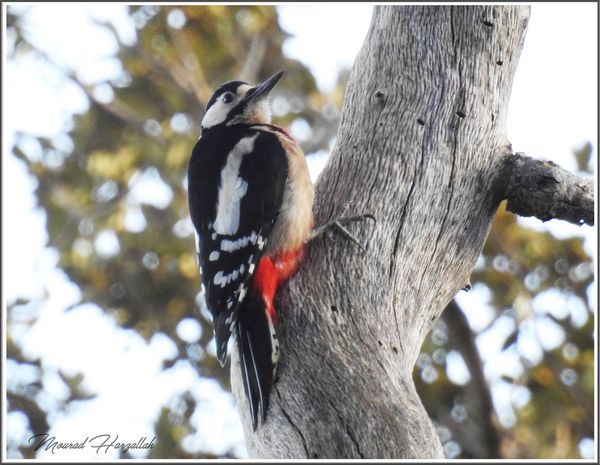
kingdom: Animalia
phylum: Chordata
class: Aves
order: Piciformes
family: Picidae
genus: Dendrocopos
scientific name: Dendrocopos major
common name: Great spotted woodpecker
